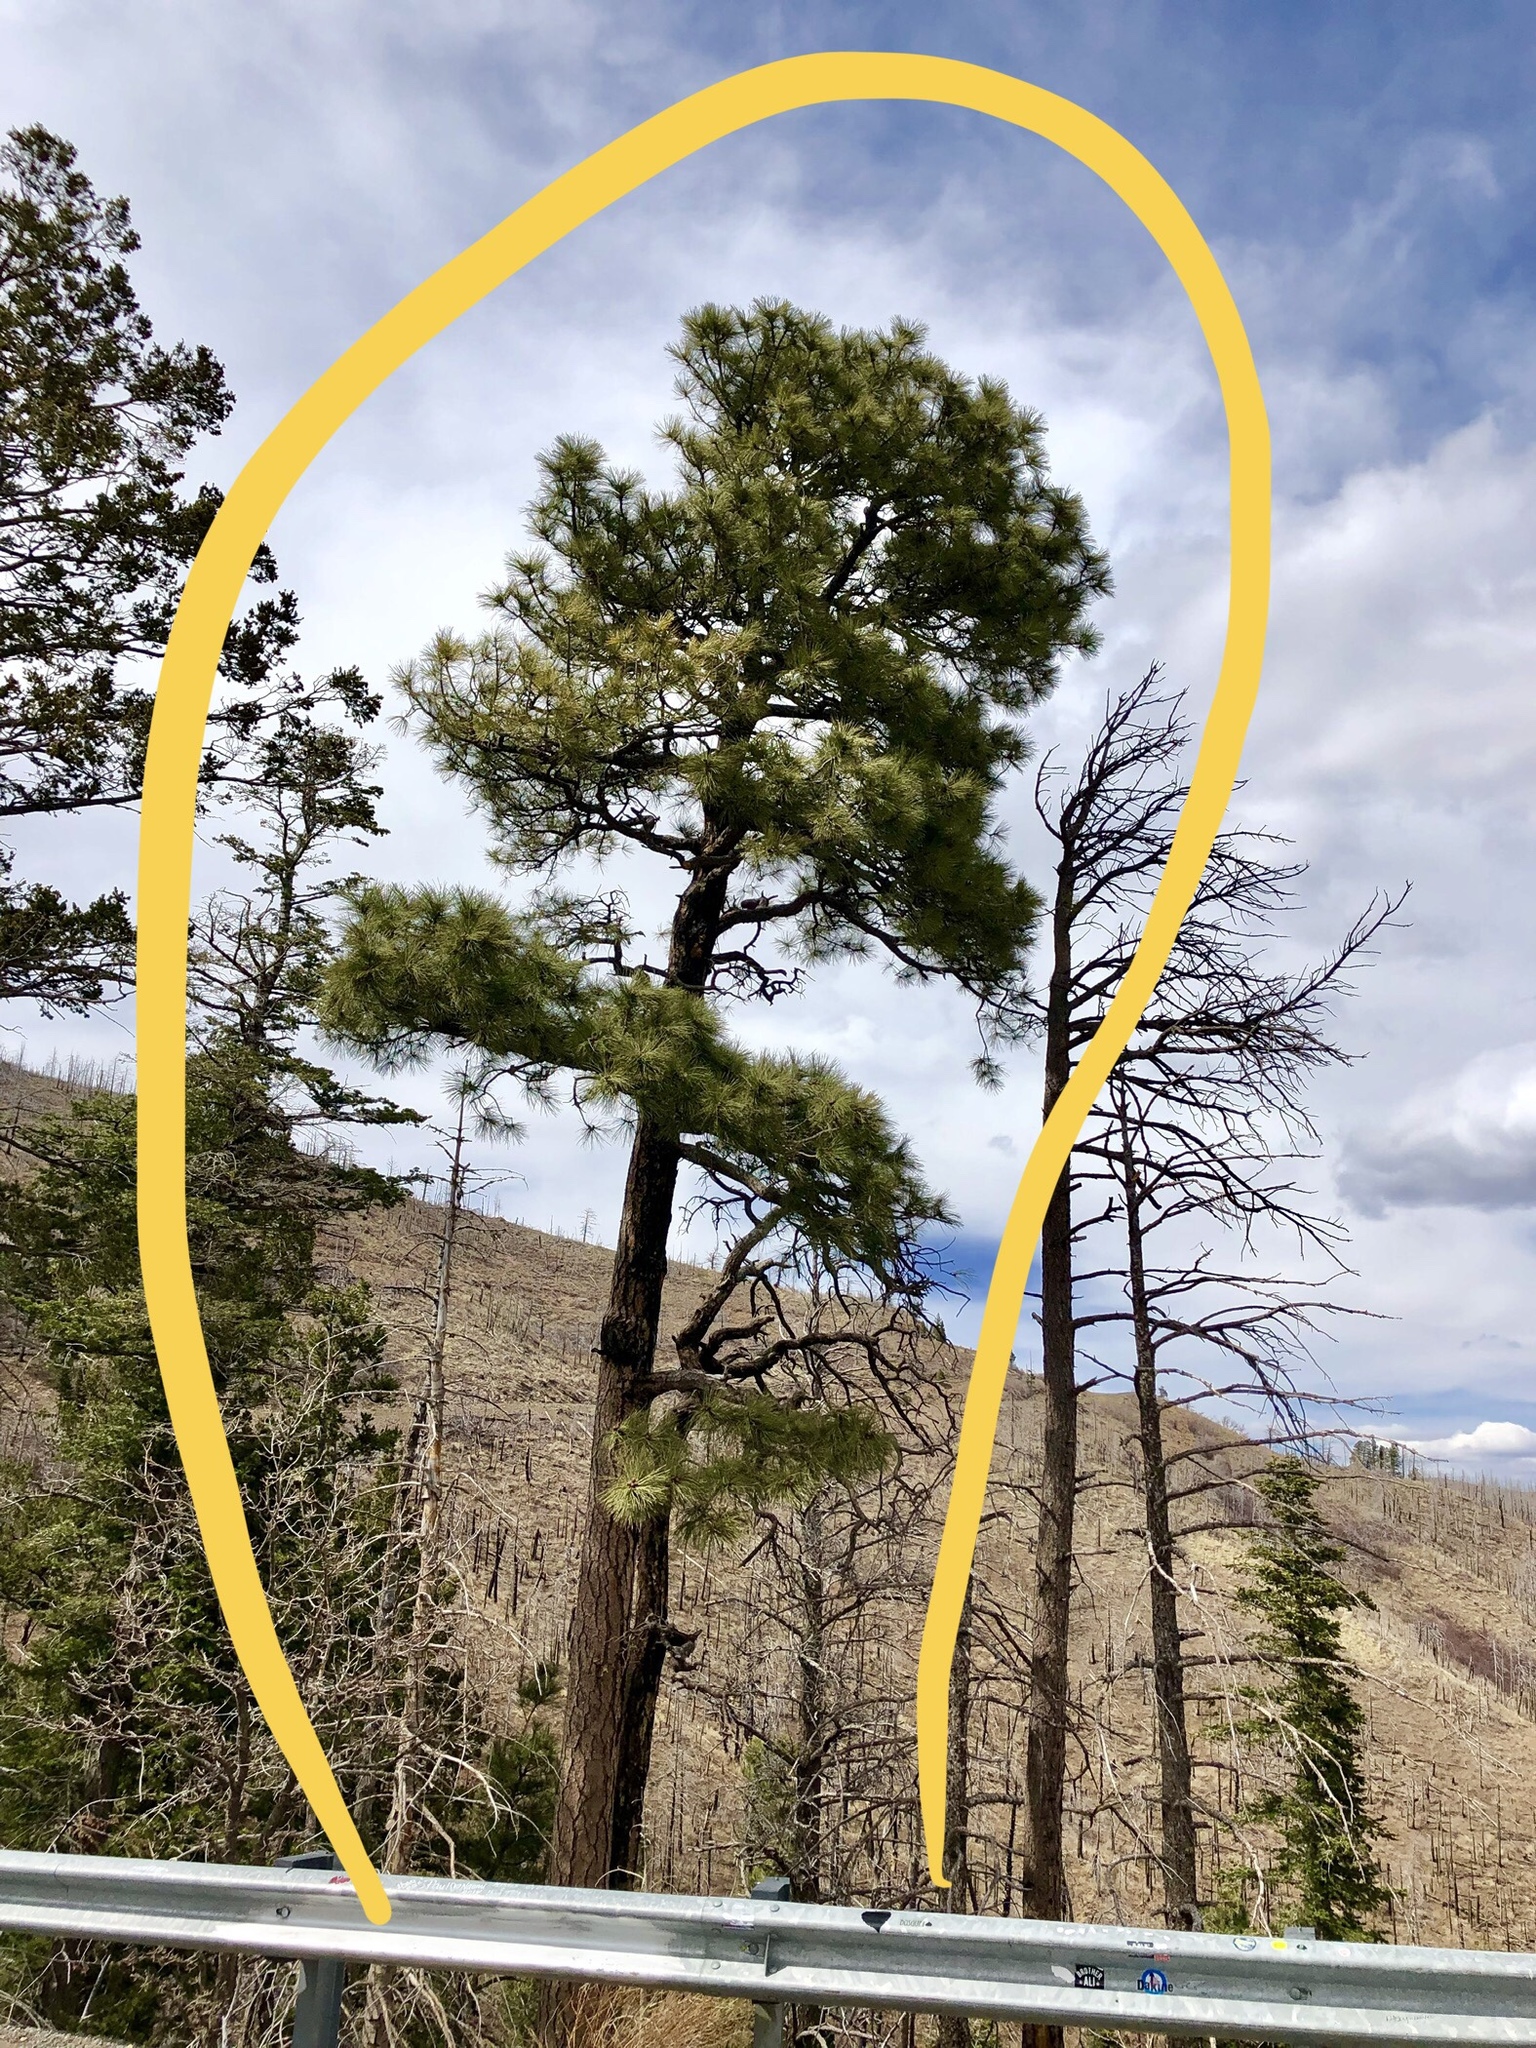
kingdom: Plantae
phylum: Tracheophyta
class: Pinopsida
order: Pinales
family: Pinaceae
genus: Pinus
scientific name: Pinus ponderosa
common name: Western yellow-pine
